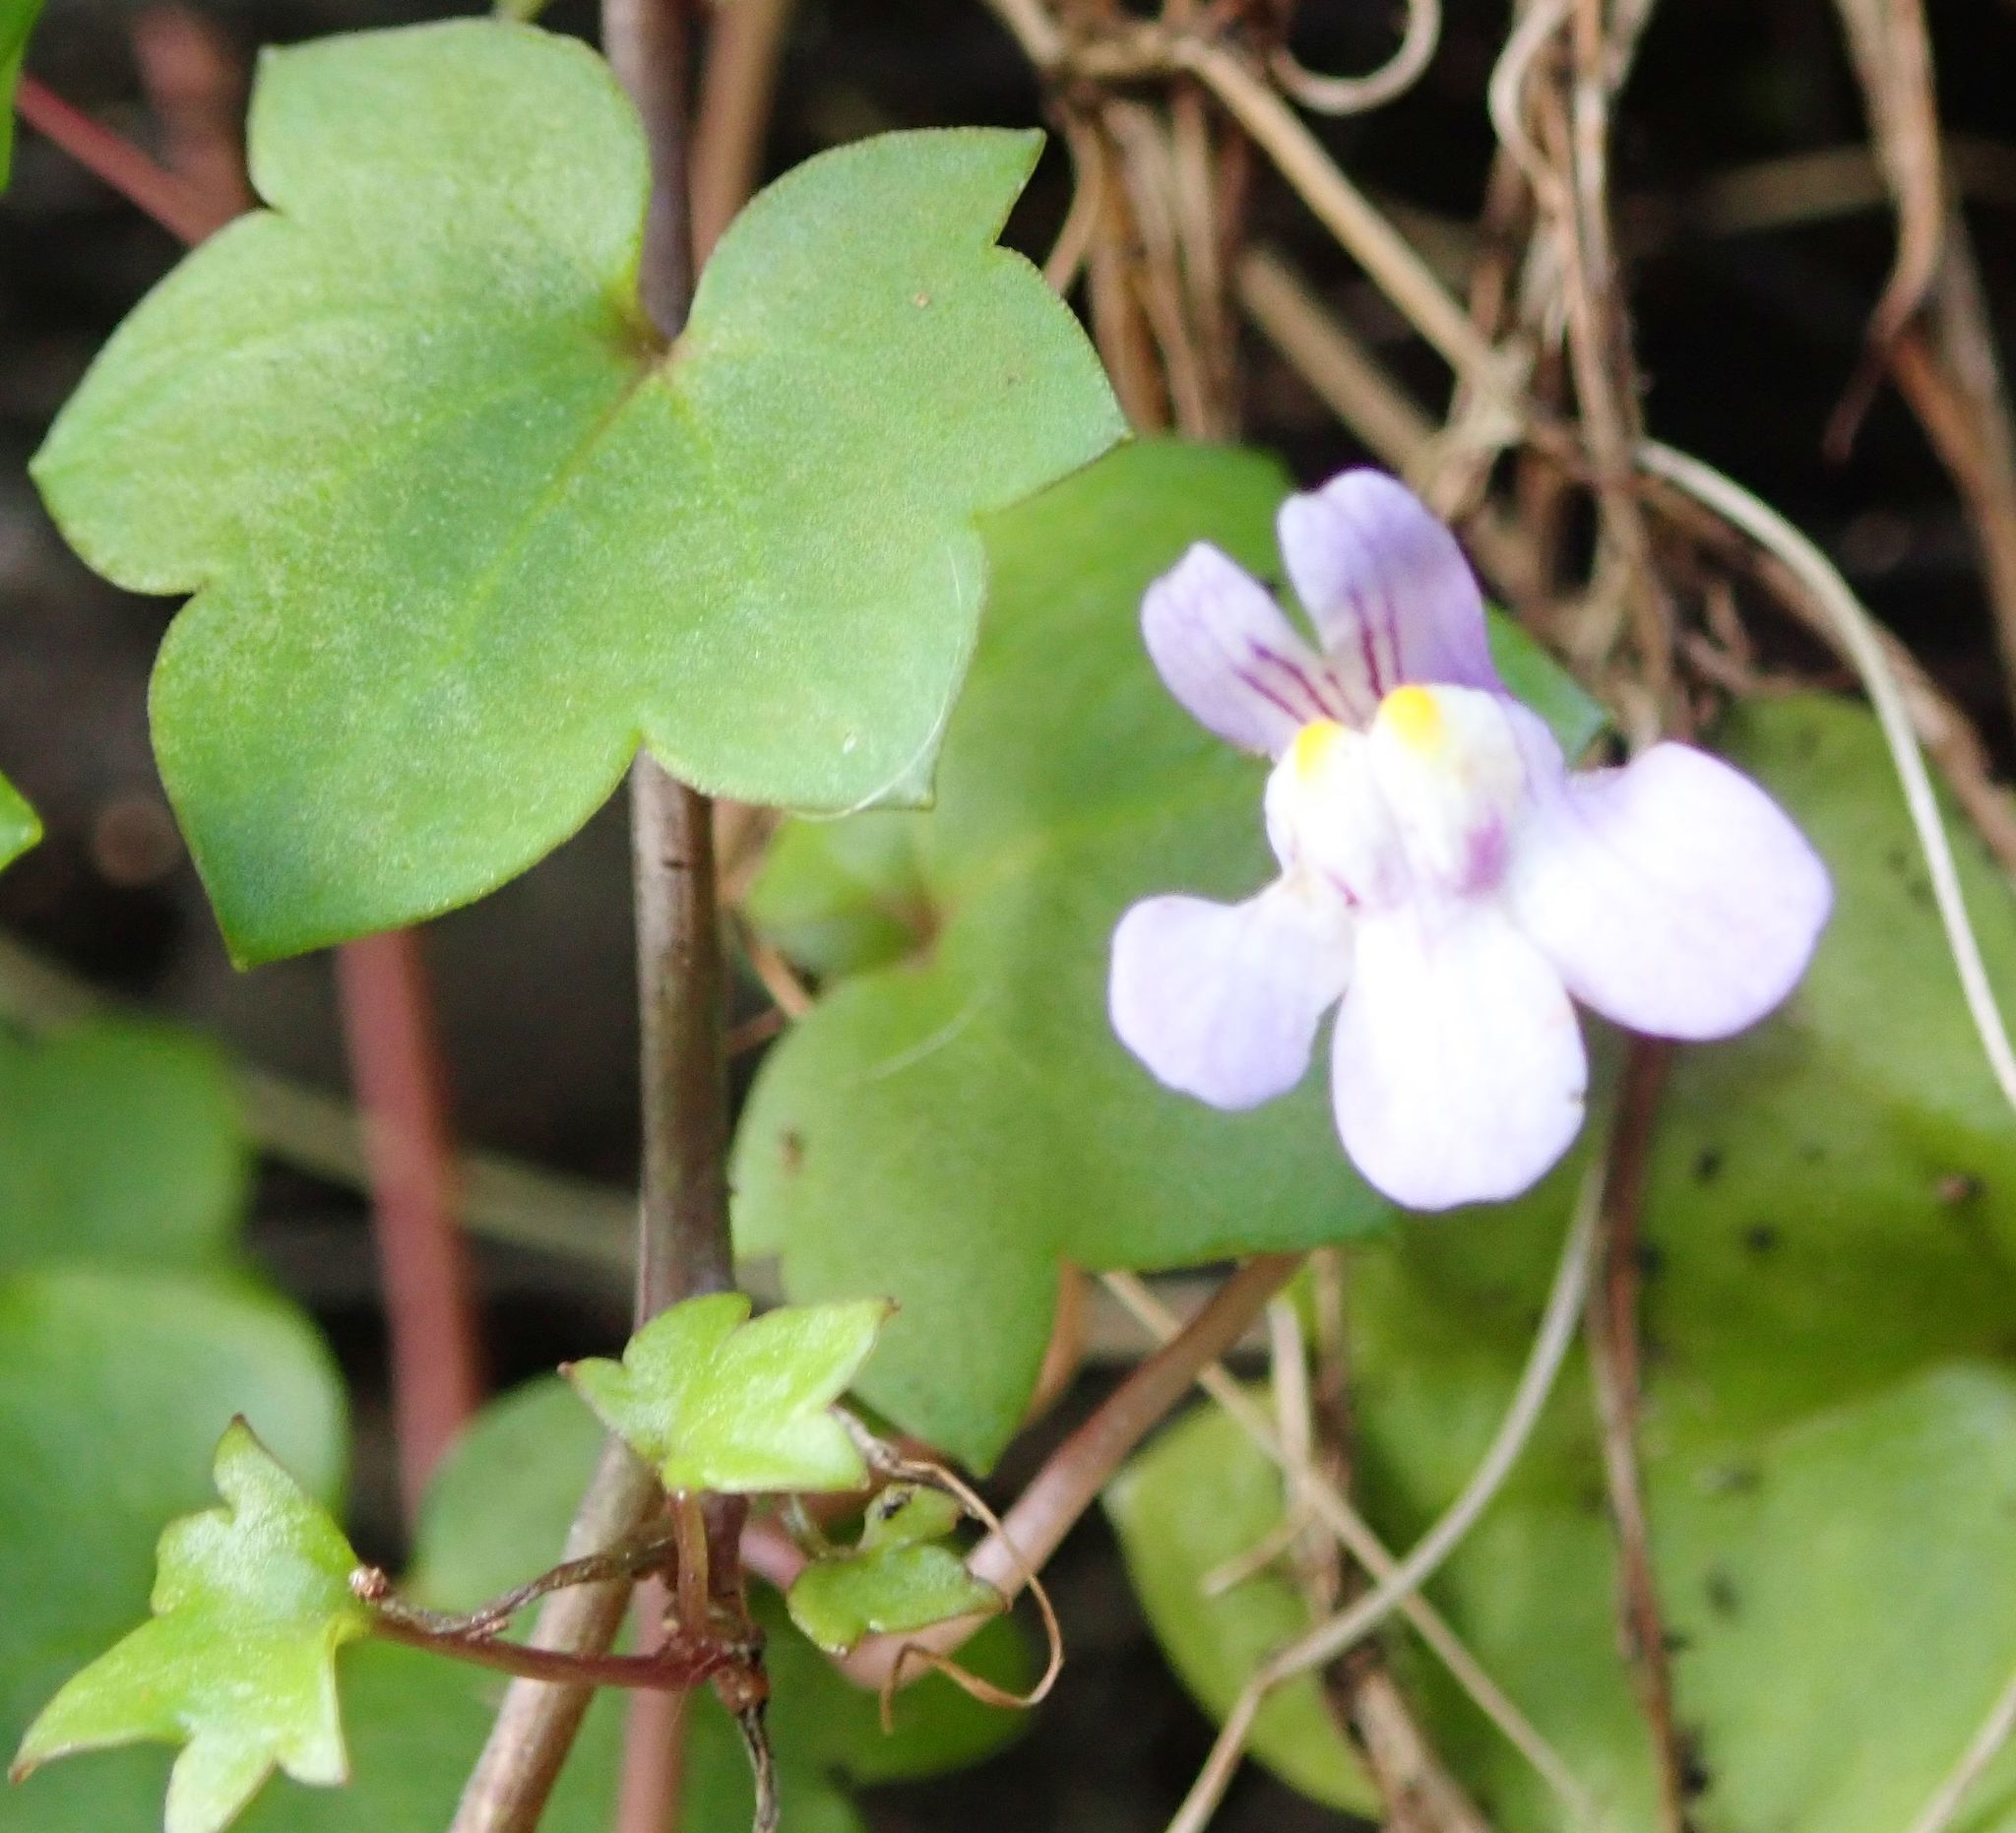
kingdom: Plantae
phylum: Tracheophyta
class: Magnoliopsida
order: Lamiales
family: Plantaginaceae
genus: Cymbalaria
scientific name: Cymbalaria muralis
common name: Ivy-leaved toadflax
